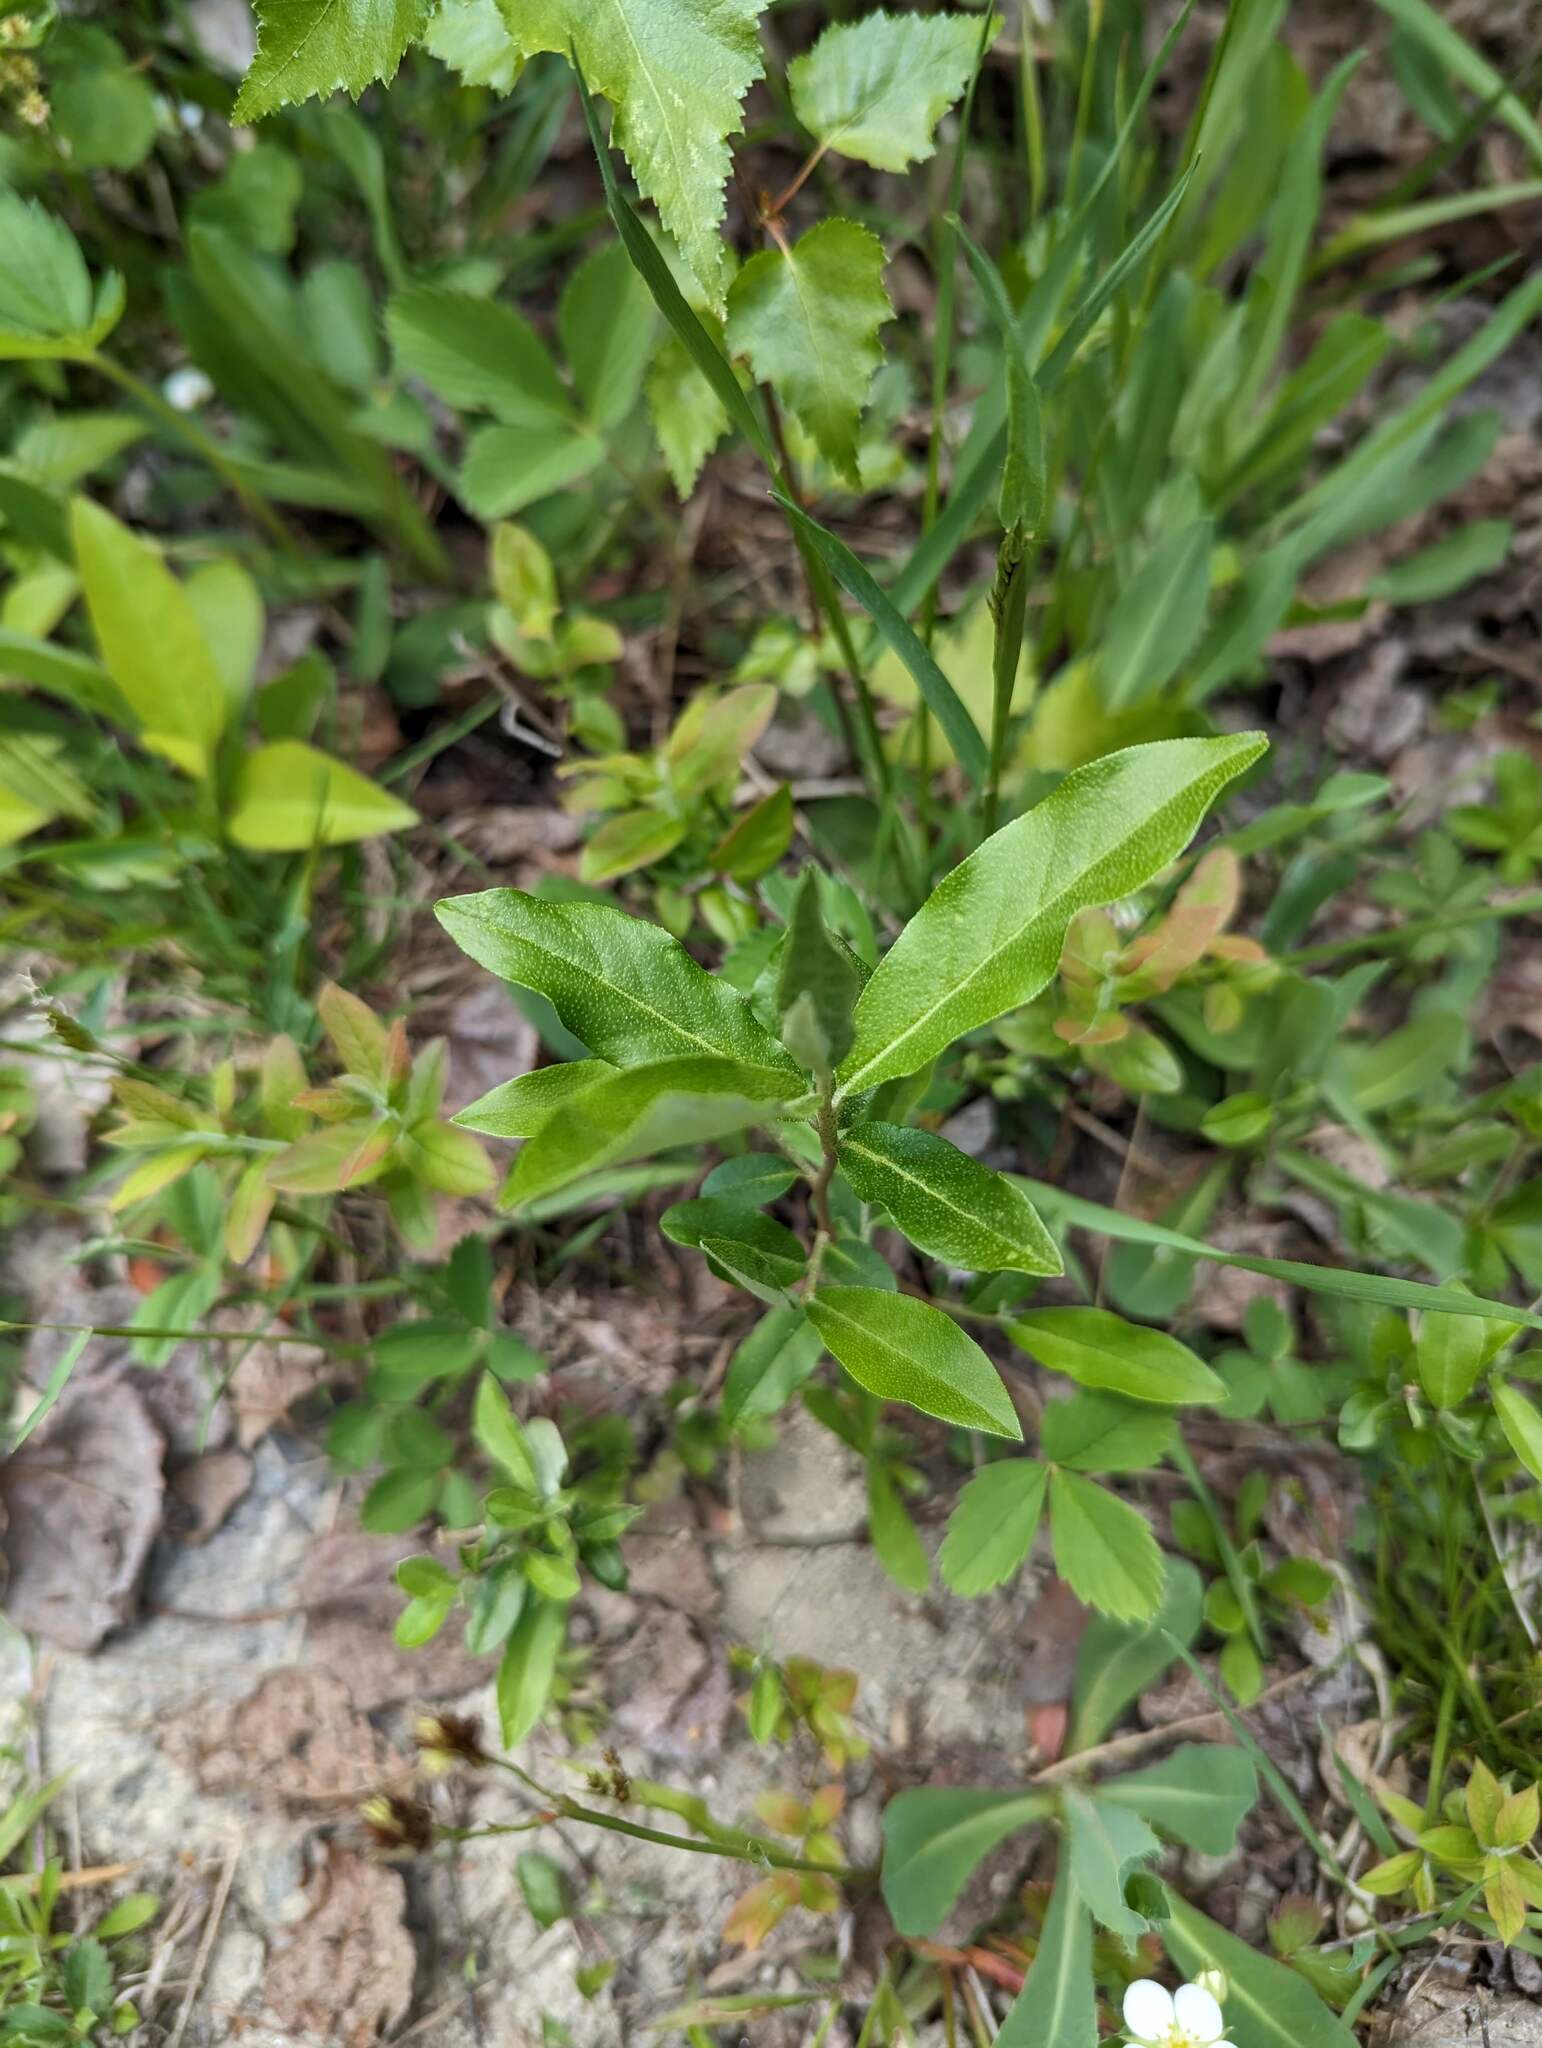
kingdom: Plantae
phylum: Tracheophyta
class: Magnoliopsida
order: Rosales
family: Elaeagnaceae
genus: Elaeagnus
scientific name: Elaeagnus umbellata
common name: Autumn olive
